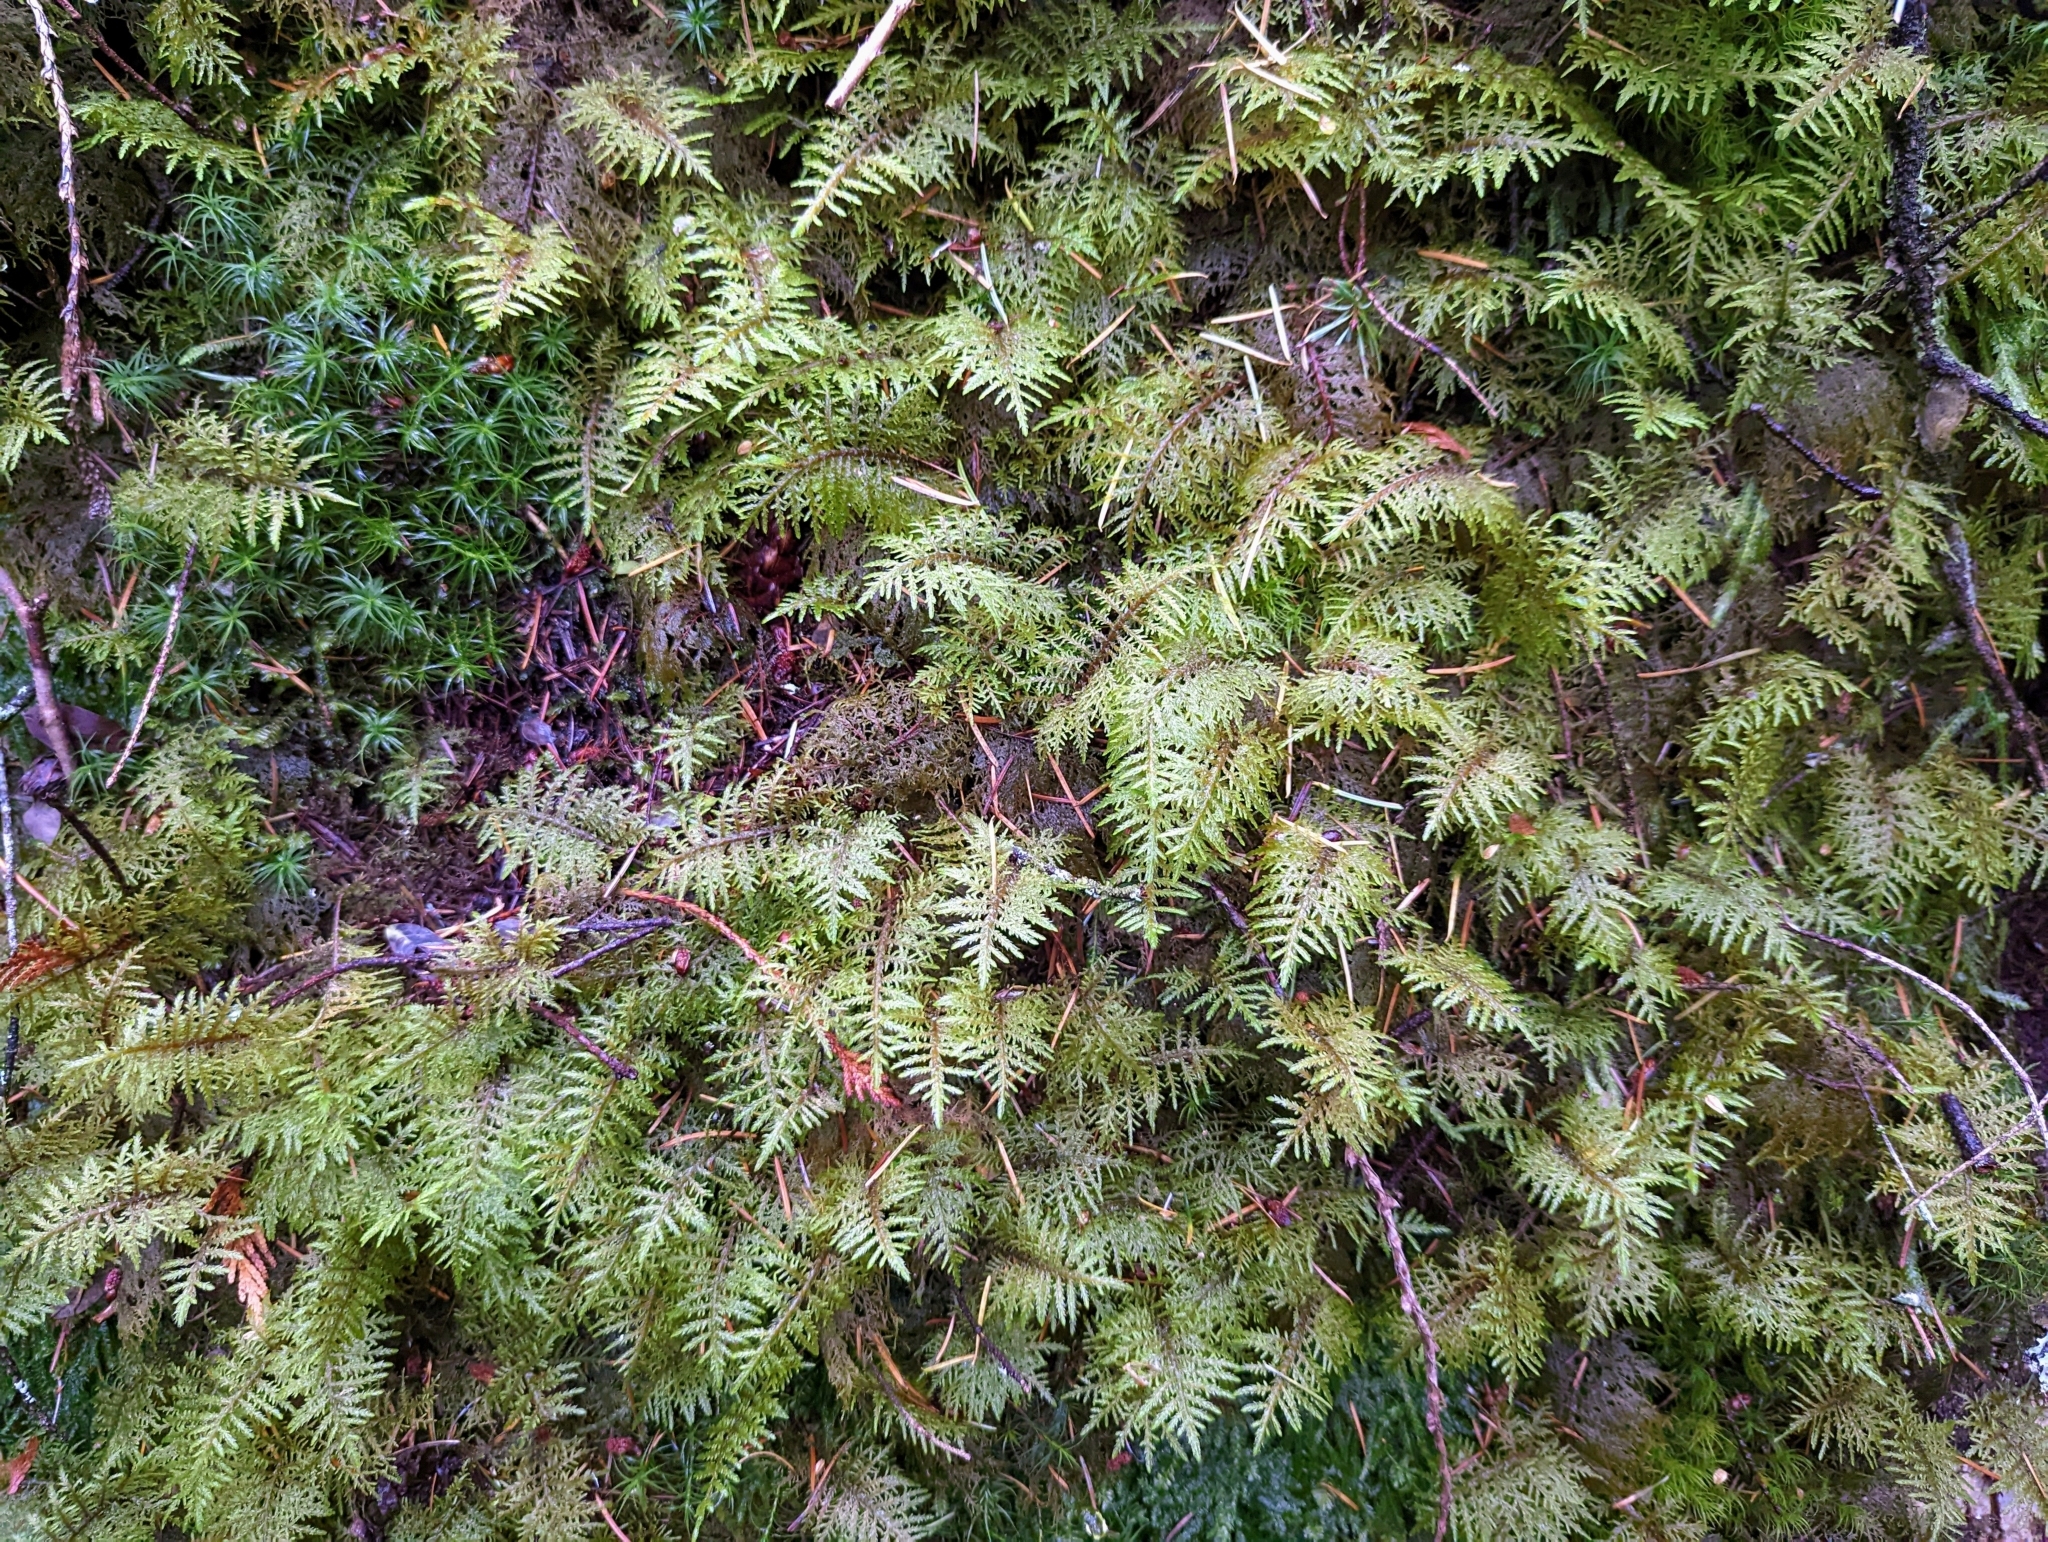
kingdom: Plantae
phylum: Bryophyta
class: Bryopsida
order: Hypnales
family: Hylocomiaceae
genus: Hylocomium
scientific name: Hylocomium splendens
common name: Stairstep moss
